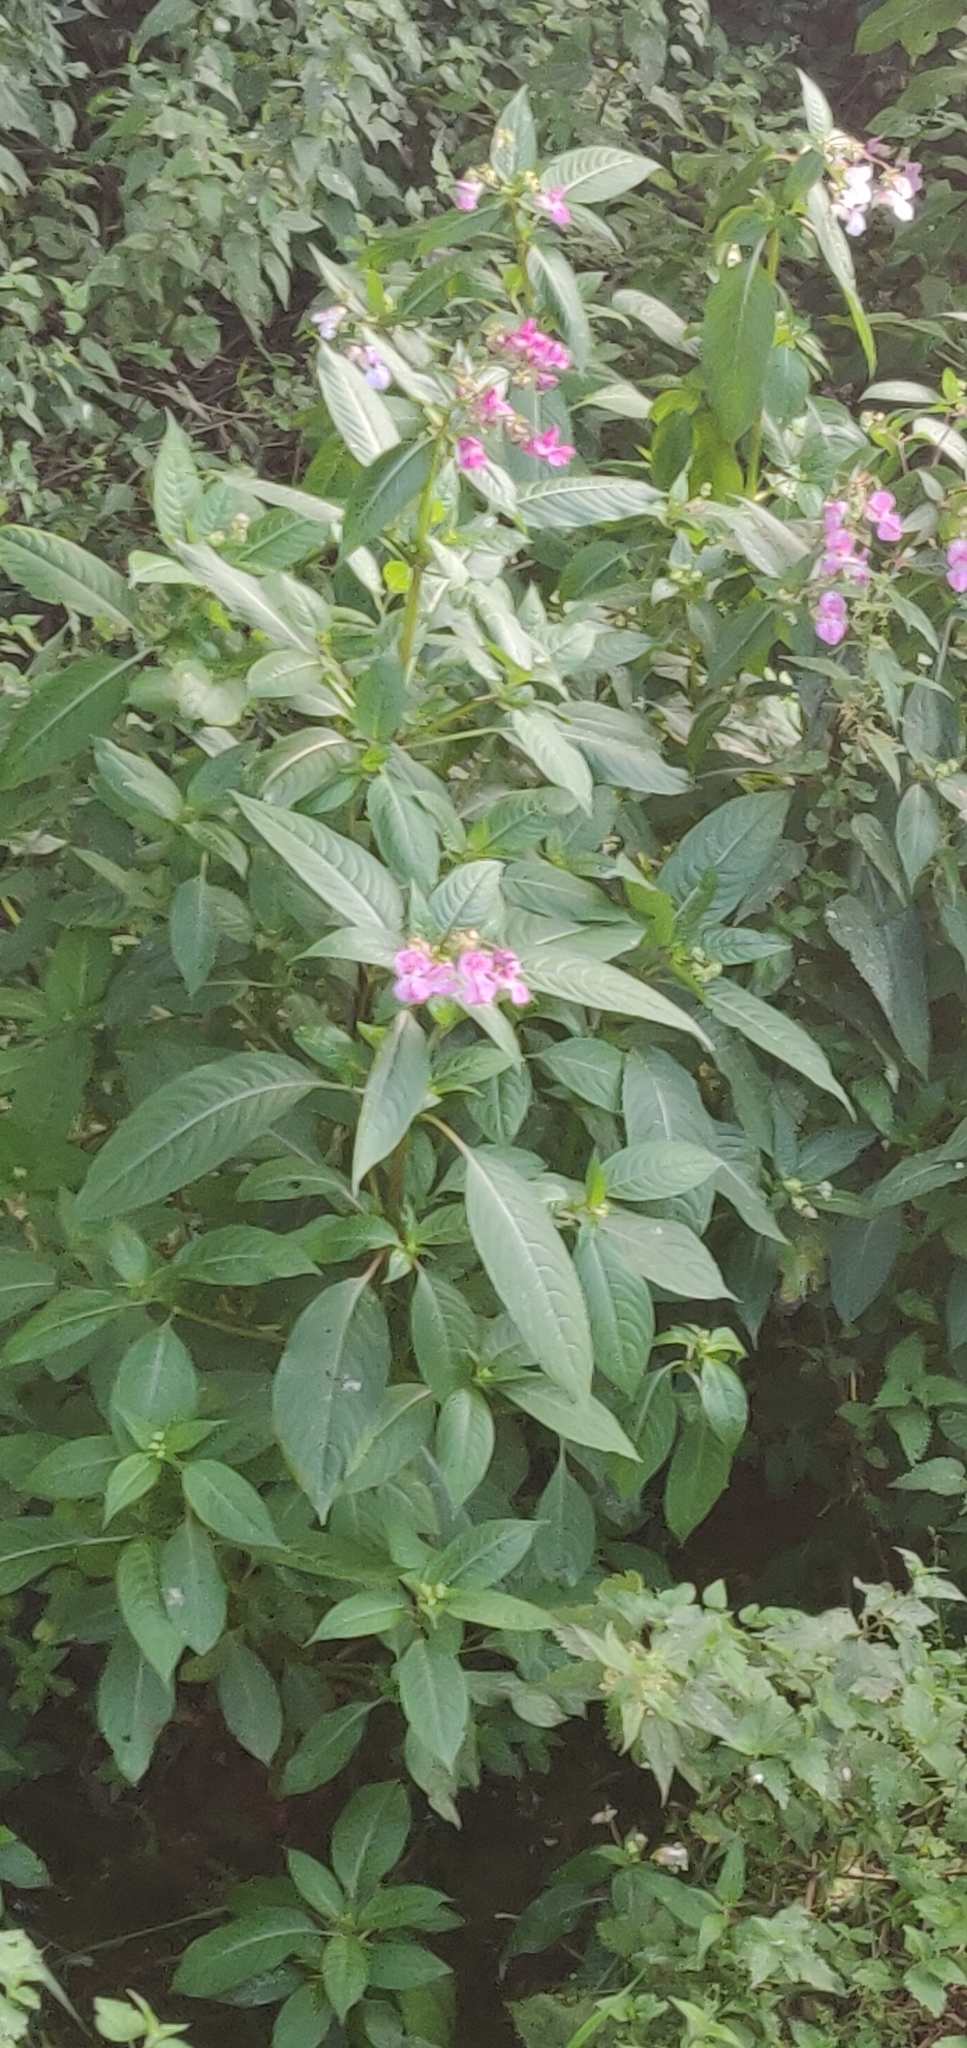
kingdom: Plantae
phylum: Tracheophyta
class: Magnoliopsida
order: Ericales
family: Balsaminaceae
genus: Impatiens
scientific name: Impatiens glandulifera
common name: Himalayan balsam
